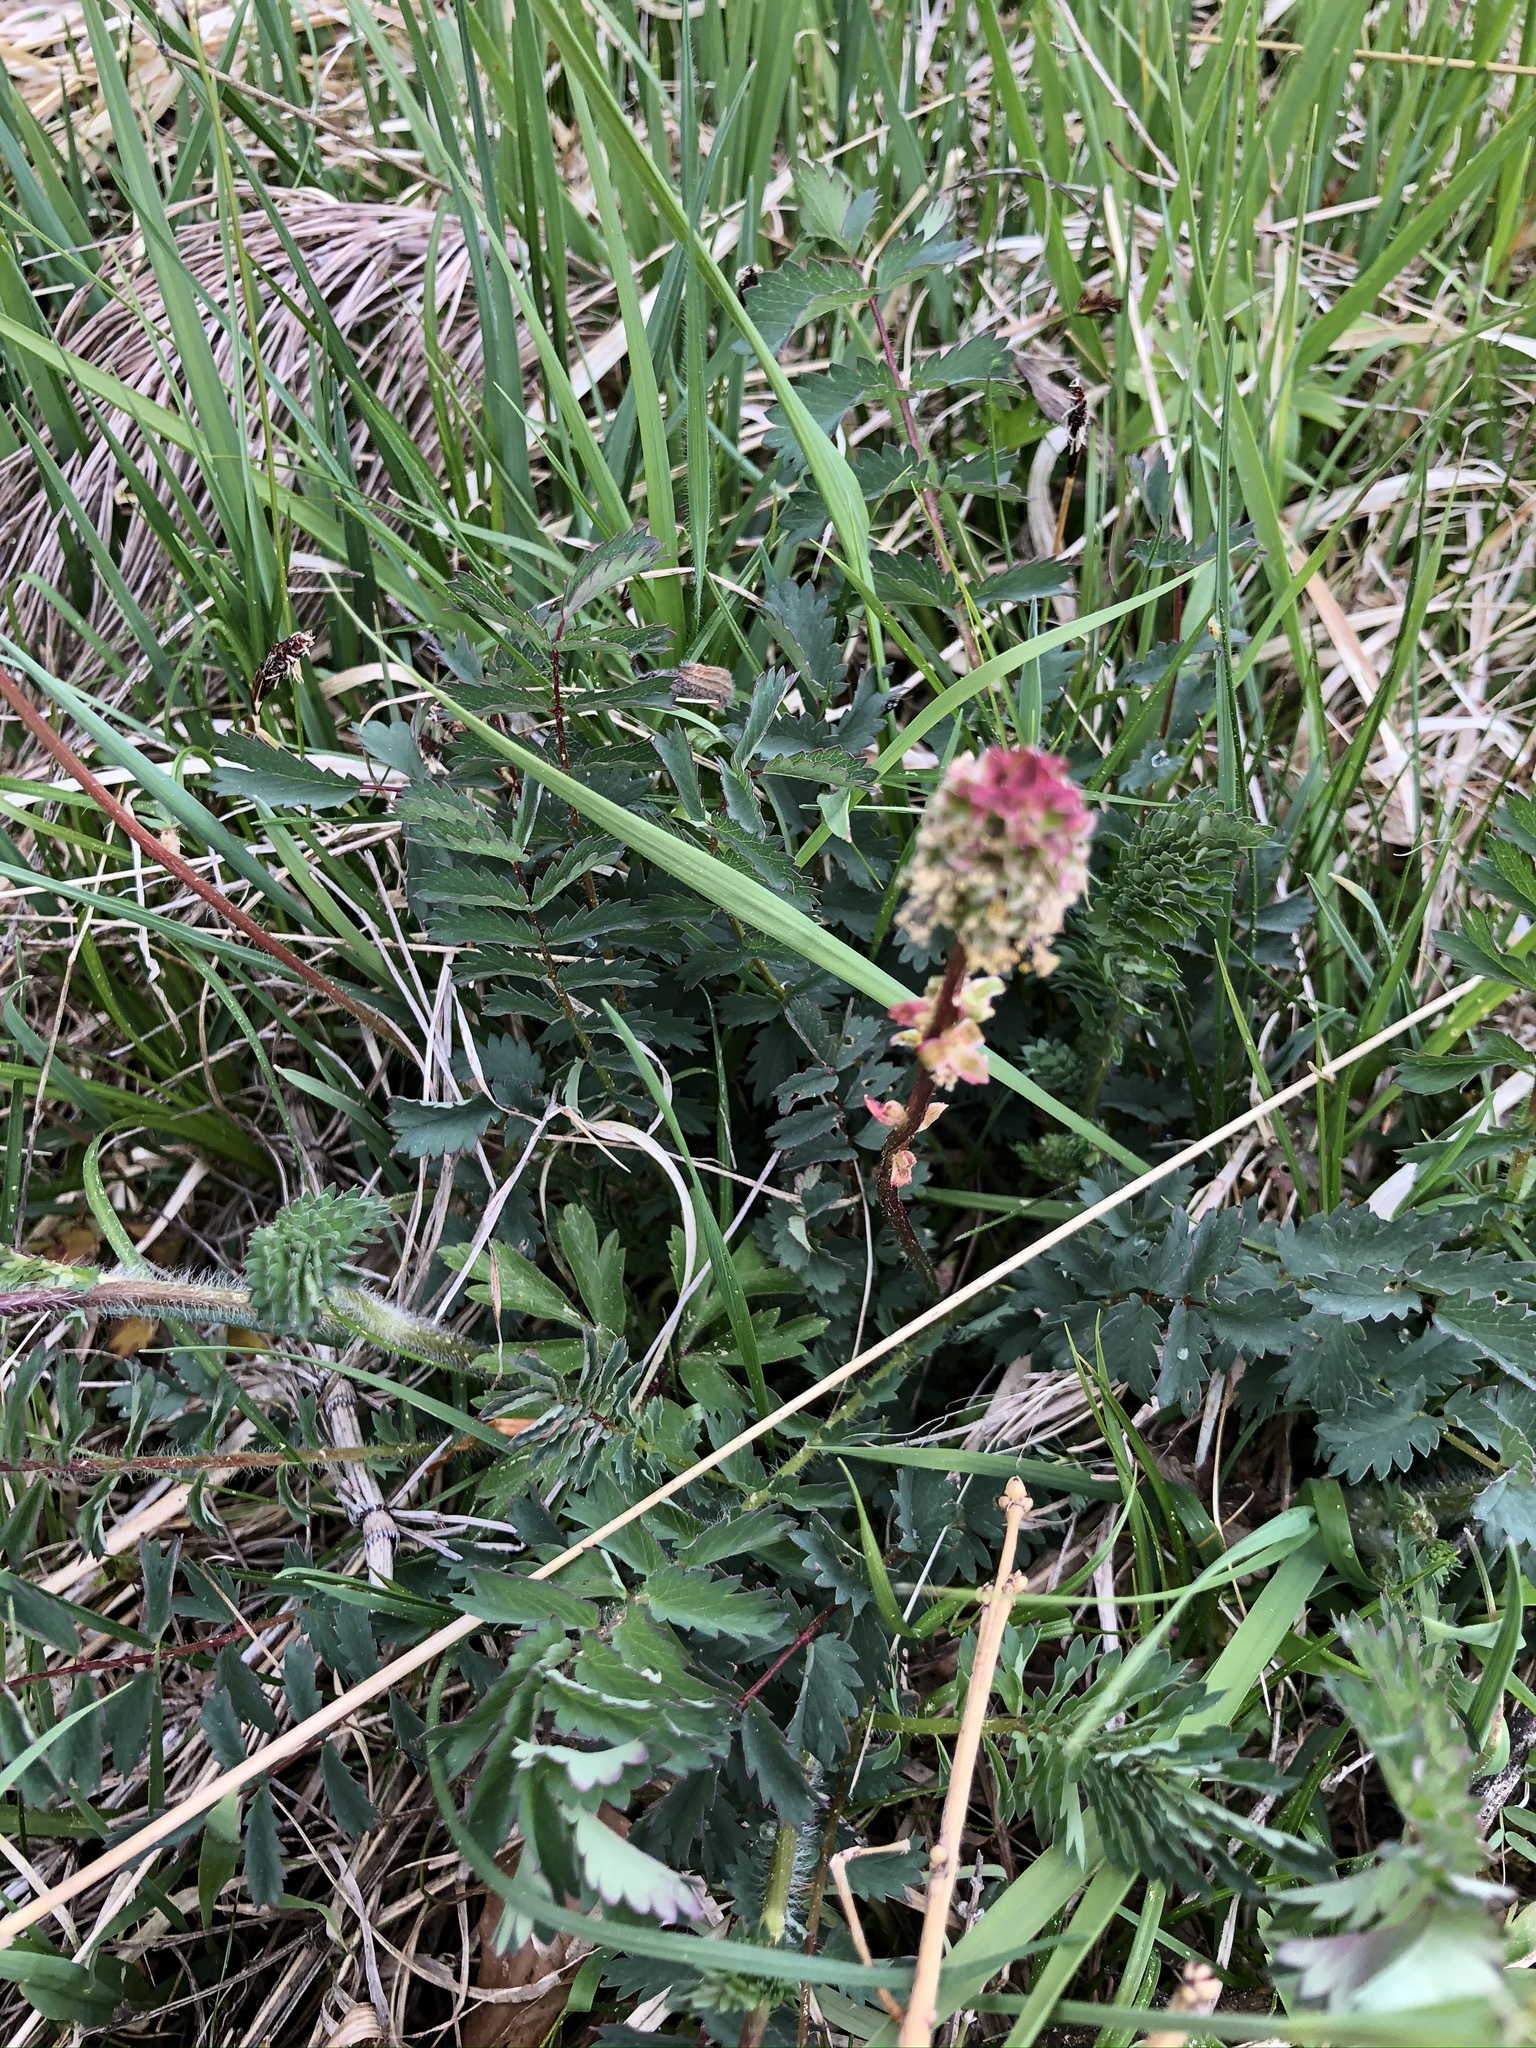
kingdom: Plantae
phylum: Tracheophyta
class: Magnoliopsida
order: Rosales
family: Rosaceae
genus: Poterium
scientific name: Poterium sanguisorba
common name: Salad burnet
